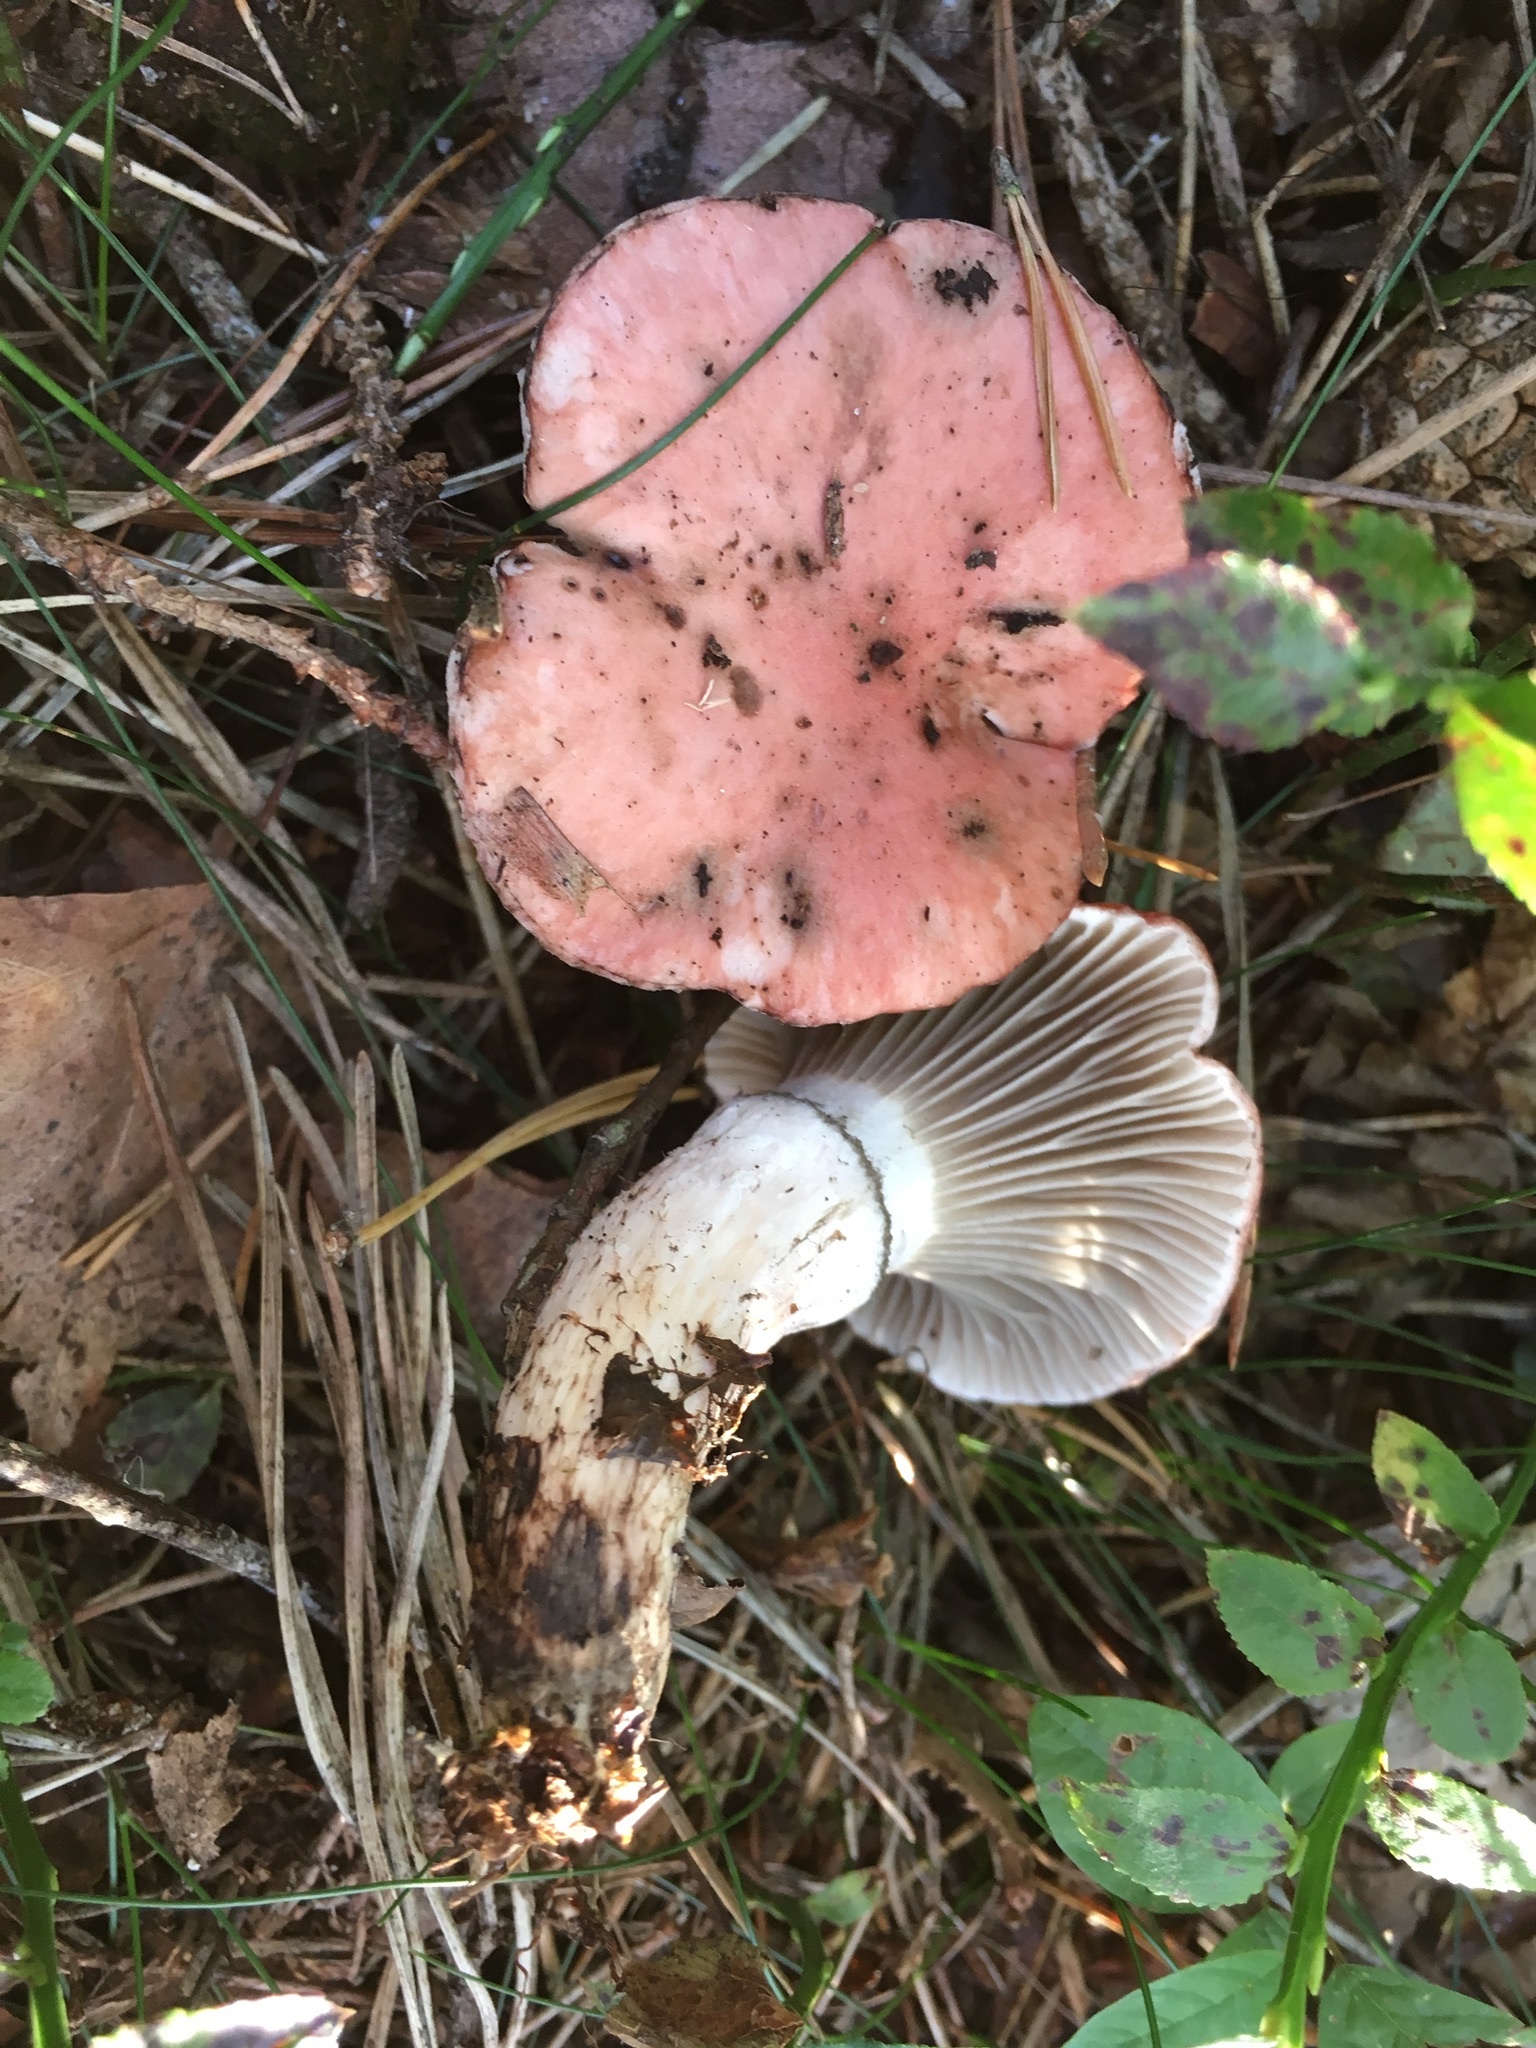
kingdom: Fungi
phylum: Basidiomycota
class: Agaricomycetes
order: Boletales
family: Gomphidiaceae
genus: Gomphidius
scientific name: Gomphidius roseus
